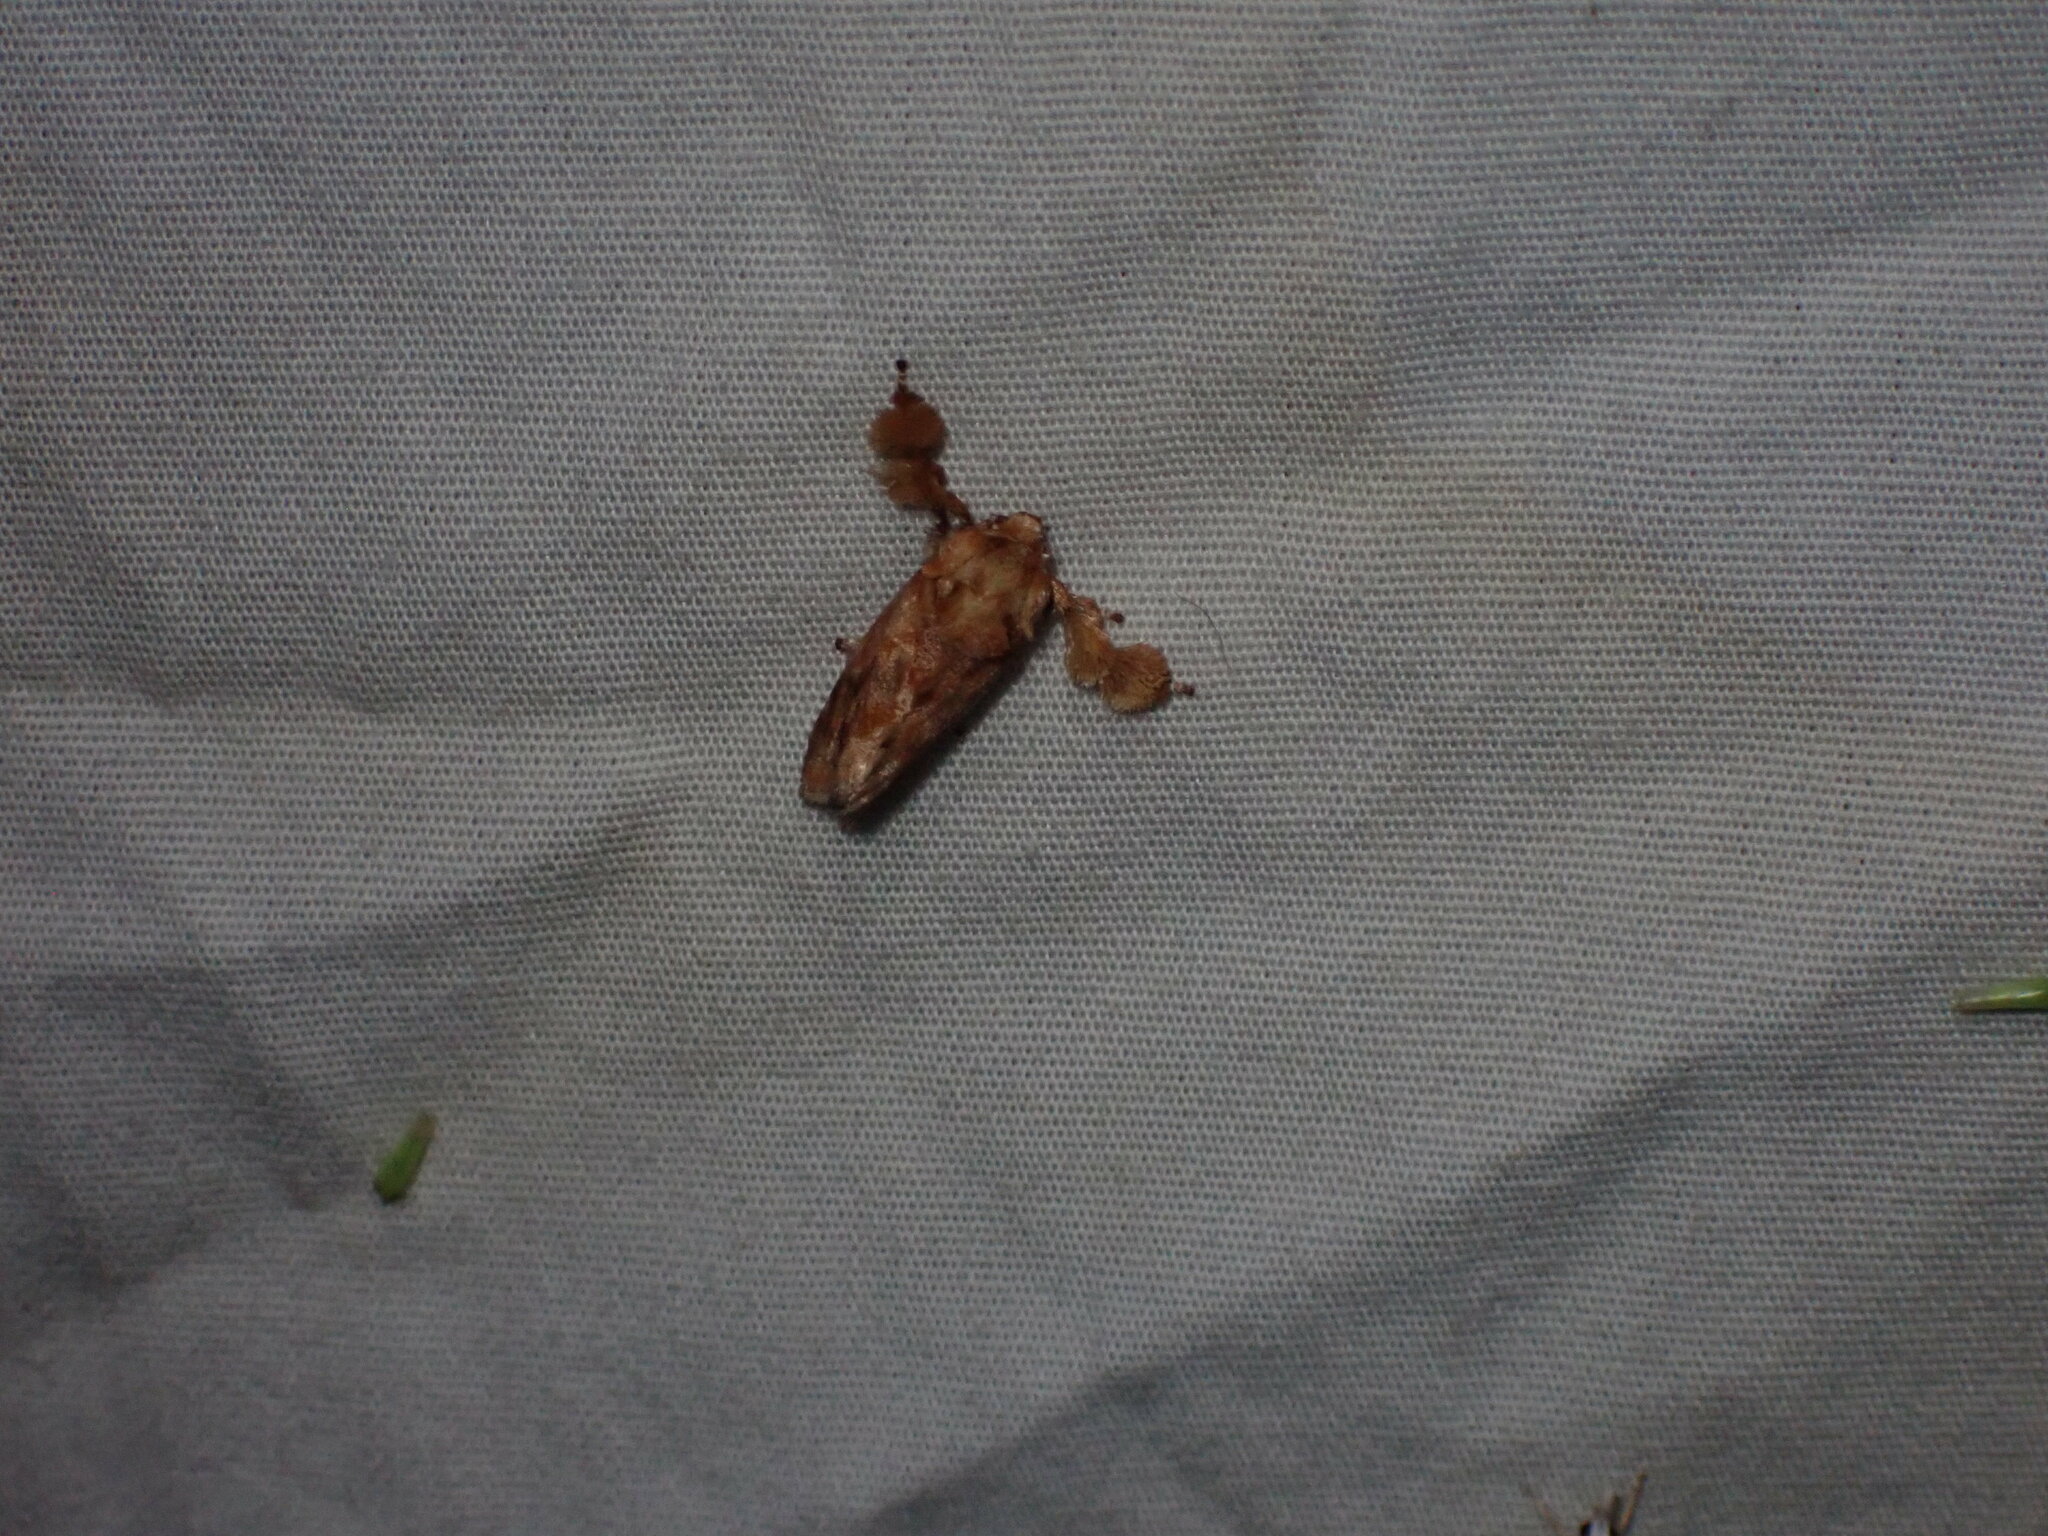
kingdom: Animalia
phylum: Arthropoda
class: Insecta
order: Lepidoptera
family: Limacodidae
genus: Isochaetes
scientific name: Isochaetes beutenmuelleri
